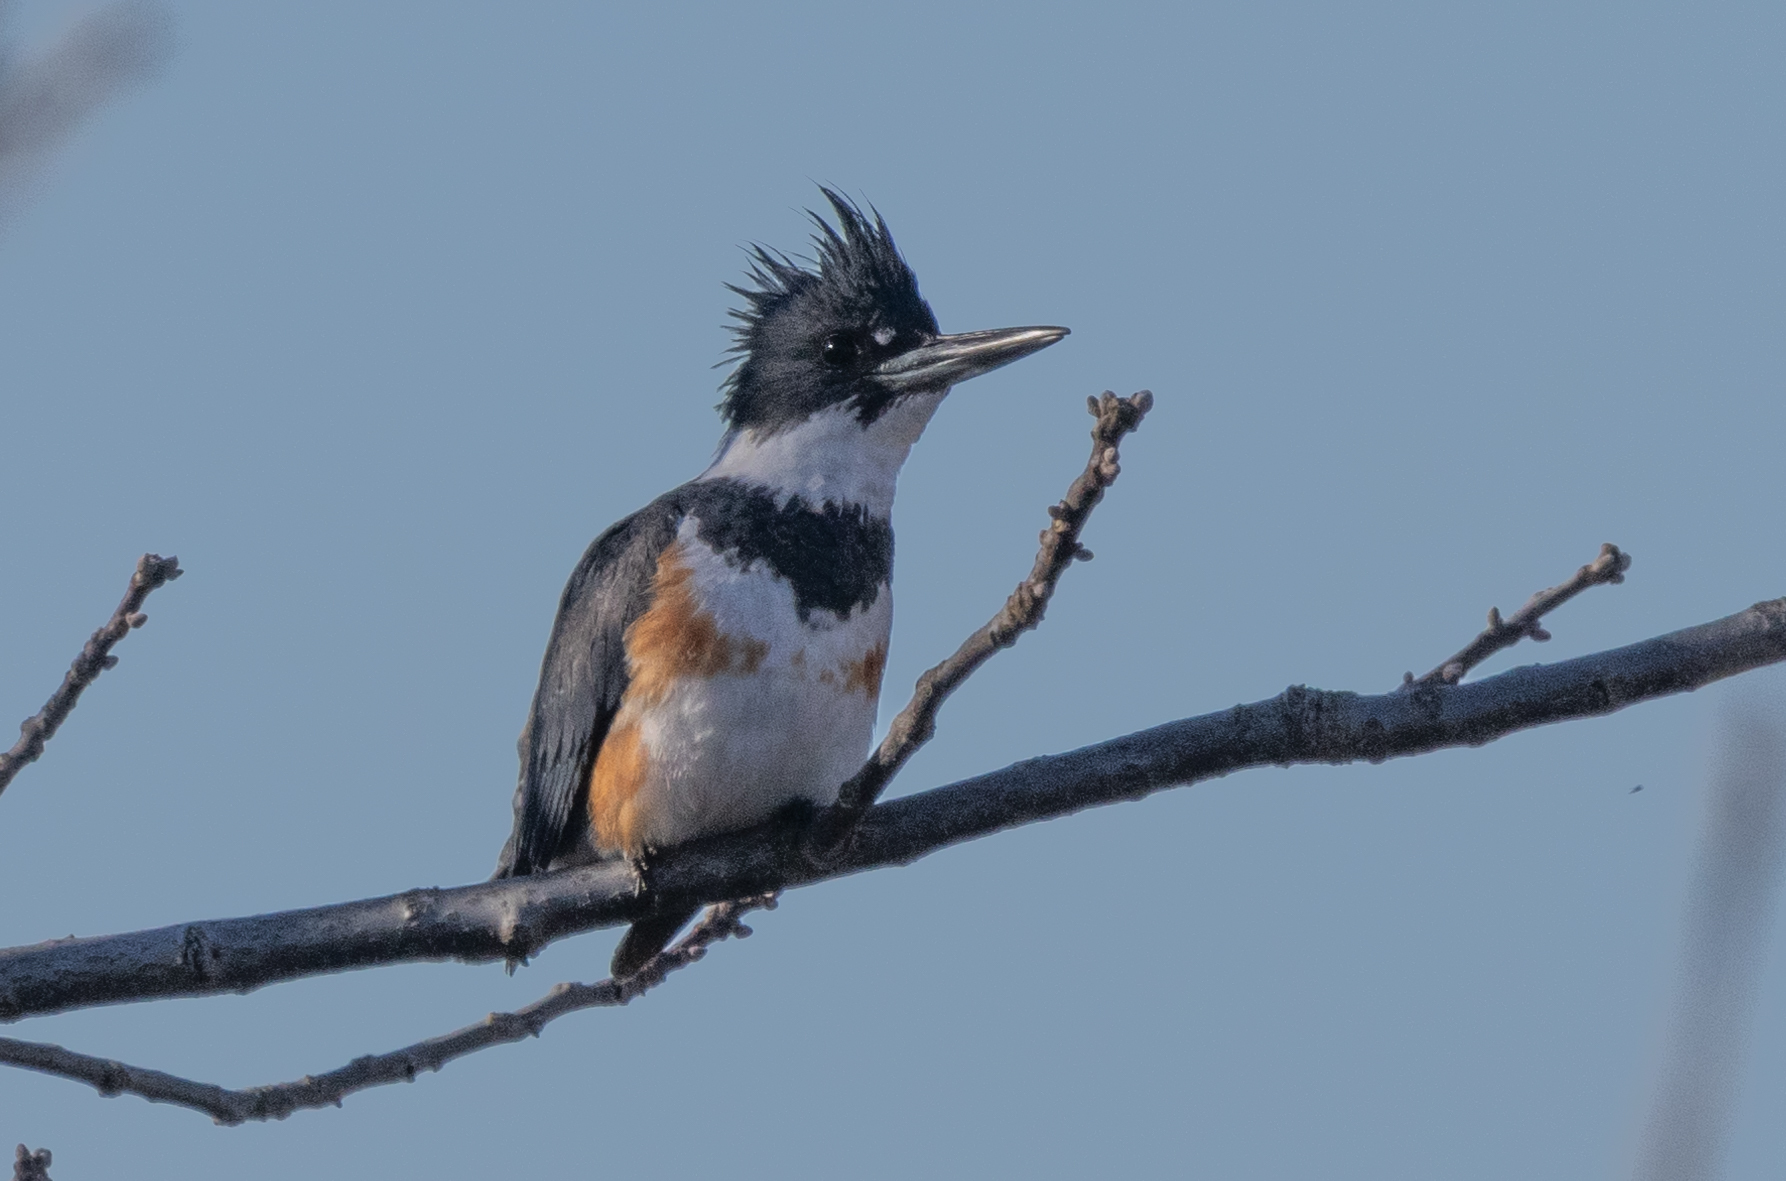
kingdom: Animalia
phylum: Chordata
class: Aves
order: Coraciiformes
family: Alcedinidae
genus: Megaceryle
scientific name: Megaceryle alcyon
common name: Belted kingfisher
